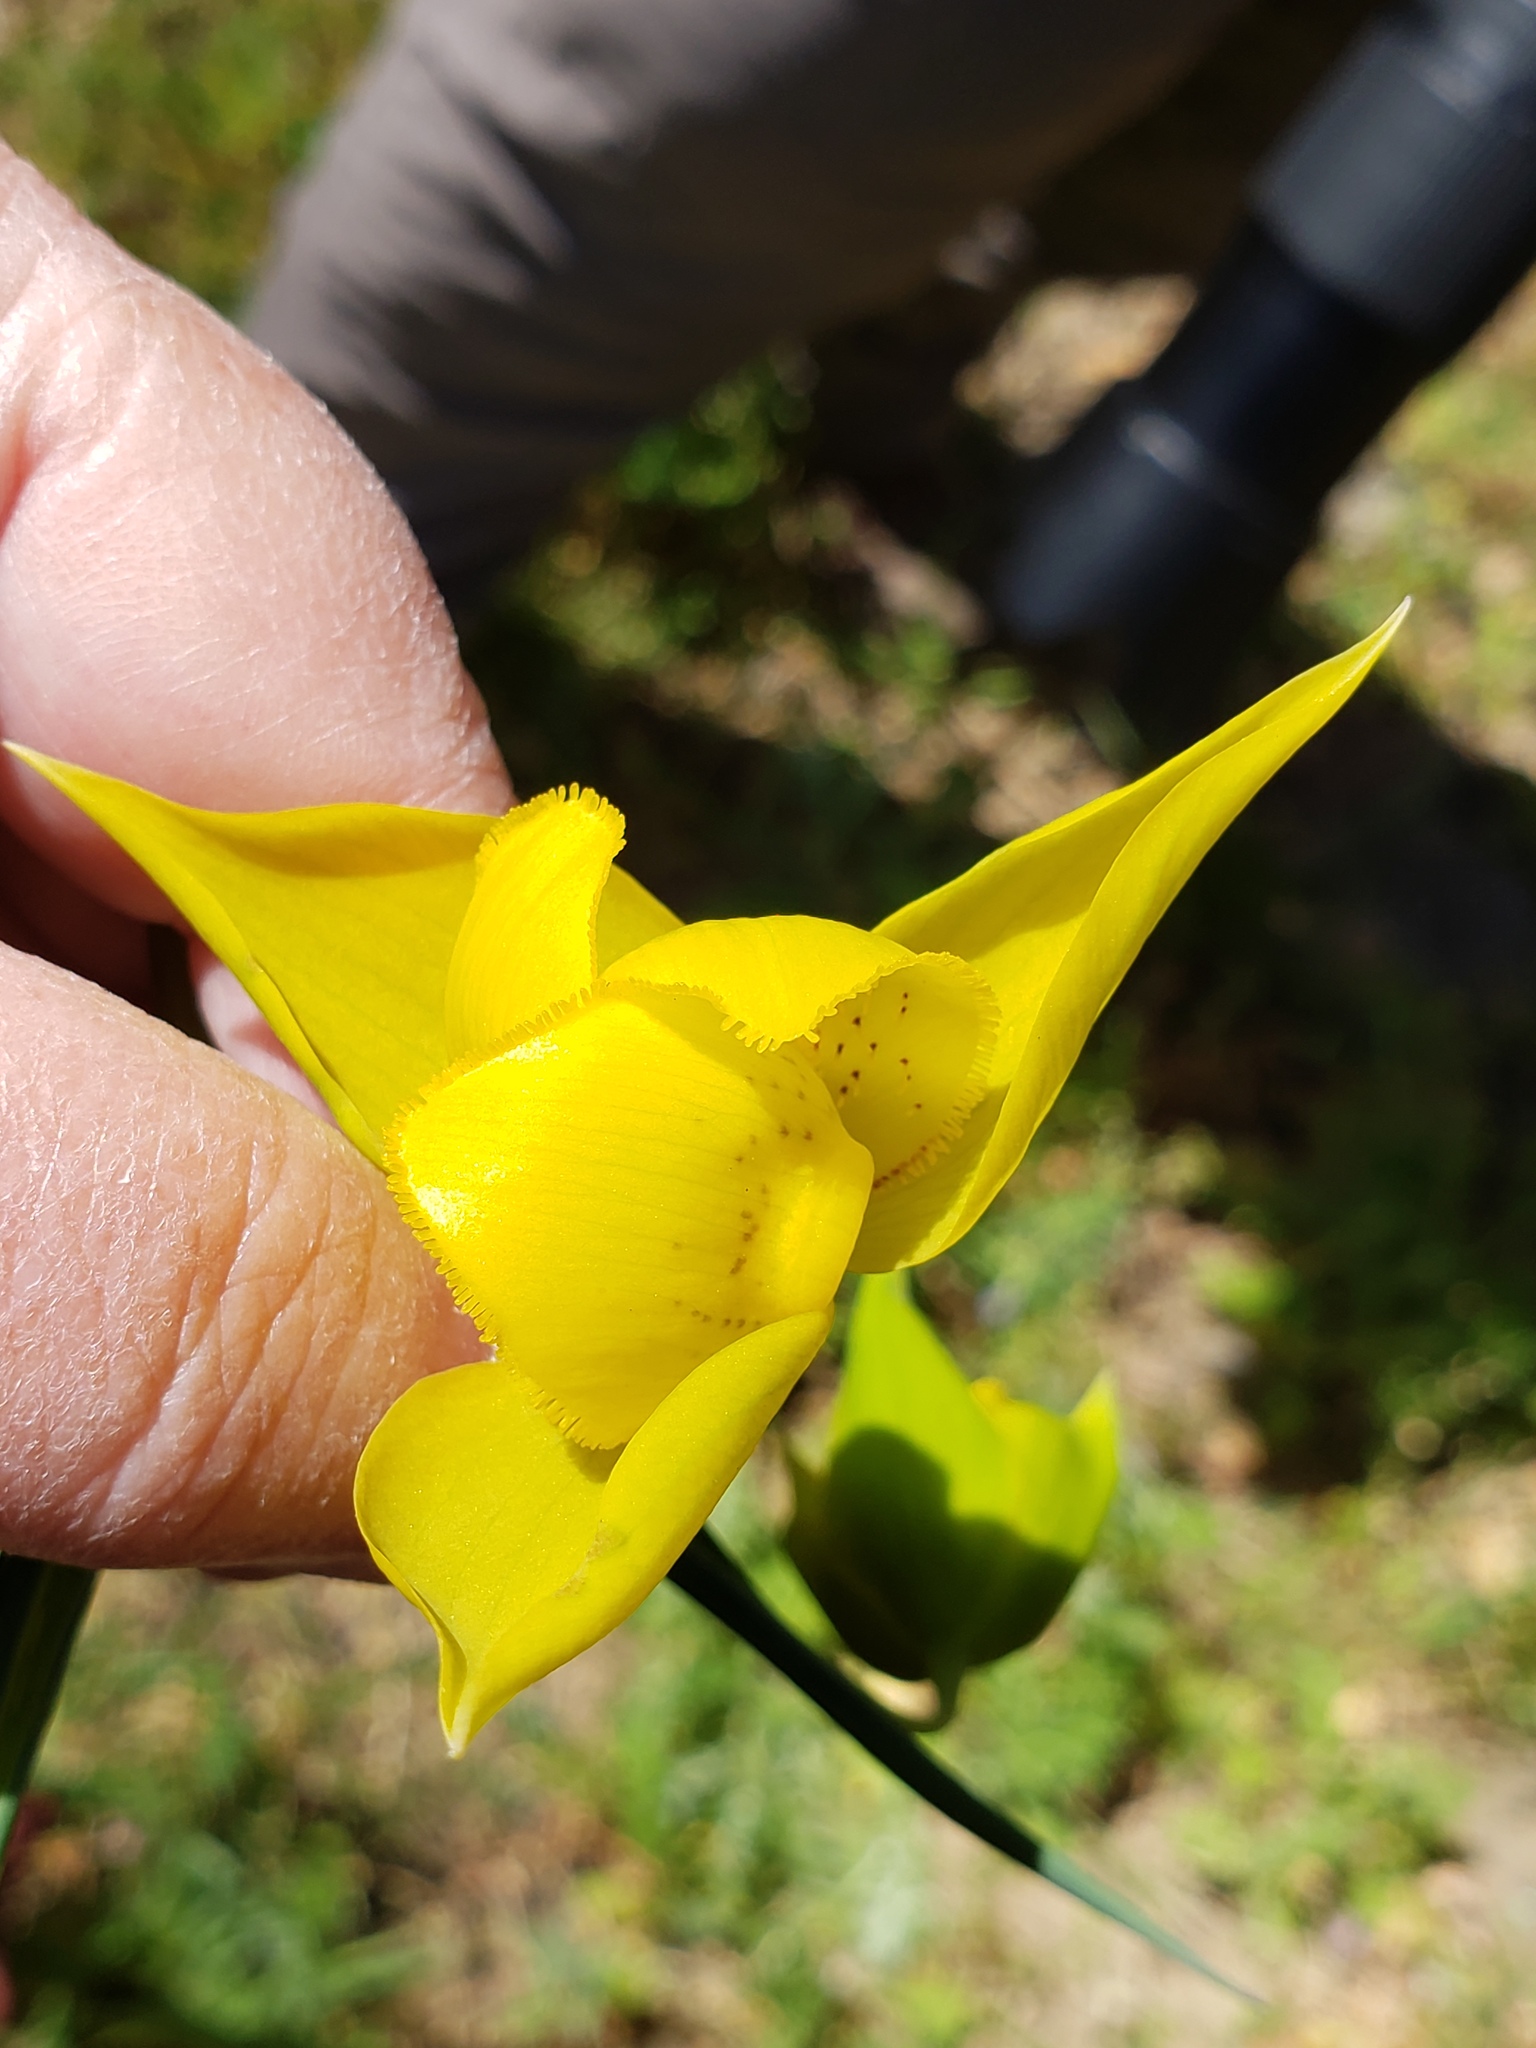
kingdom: Plantae
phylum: Tracheophyta
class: Liliopsida
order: Liliales
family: Liliaceae
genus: Calochortus
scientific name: Calochortus amabilis
